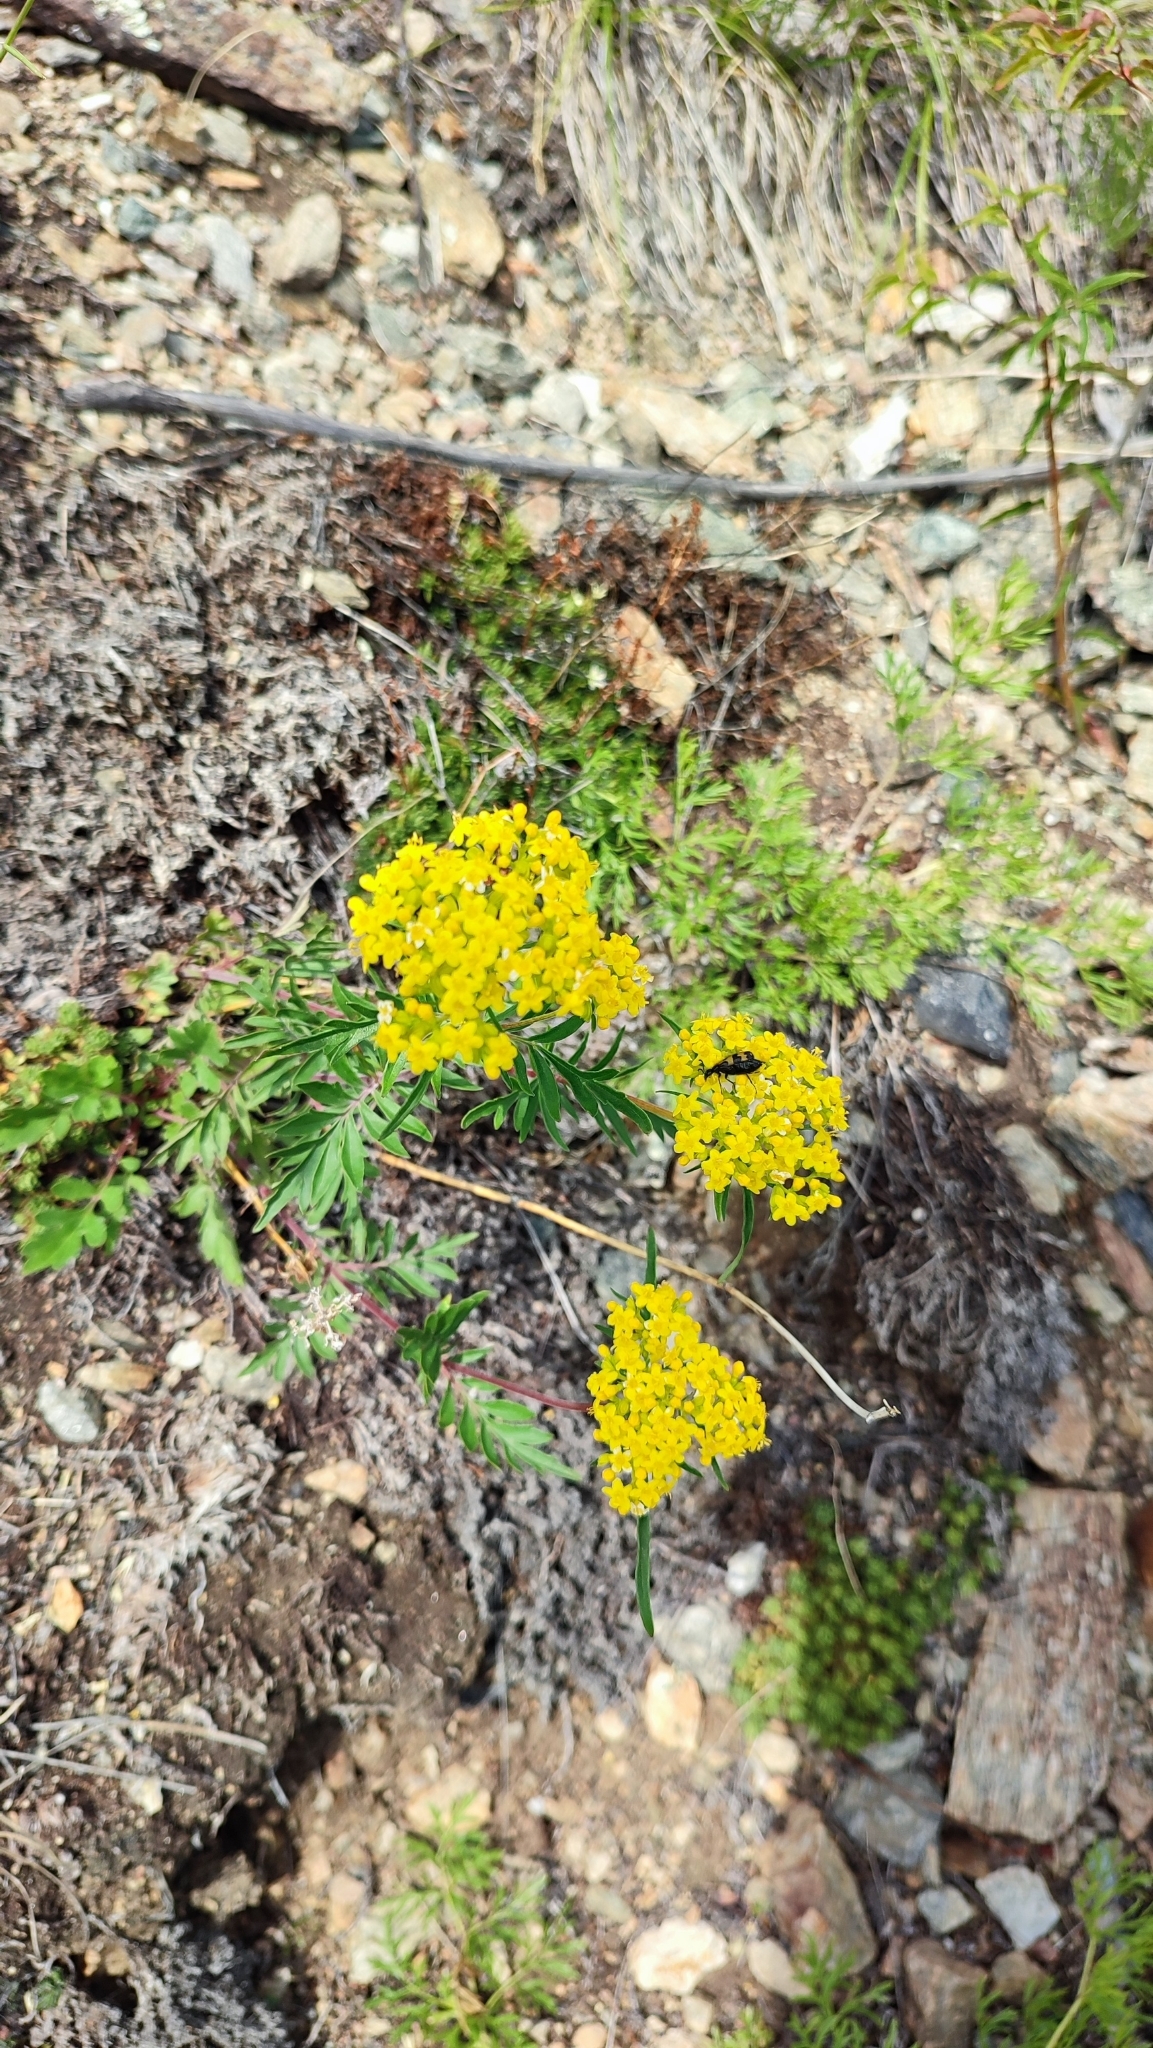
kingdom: Plantae
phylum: Tracheophyta
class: Magnoliopsida
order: Dipsacales
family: Caprifoliaceae
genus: Patrinia
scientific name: Patrinia rupestris
